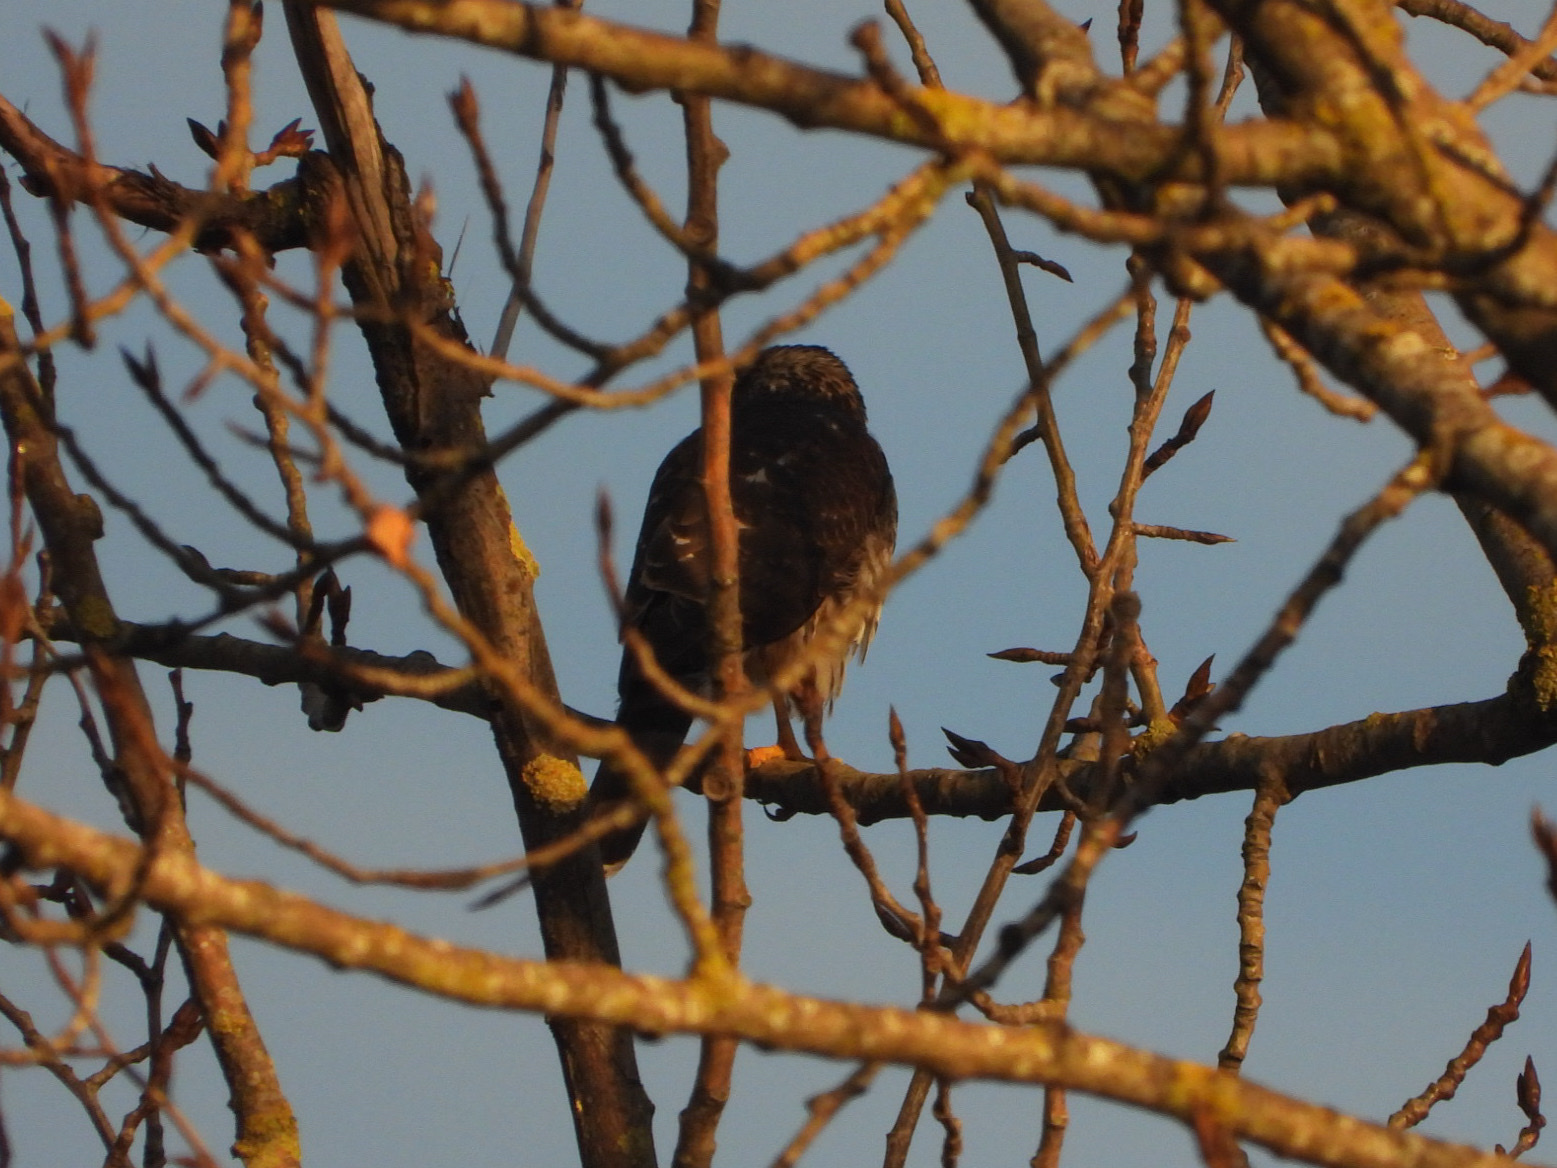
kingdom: Animalia
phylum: Chordata
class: Aves
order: Accipitriformes
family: Accipitridae
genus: Accipiter
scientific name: Accipiter striatus
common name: Sharp-shinned hawk
